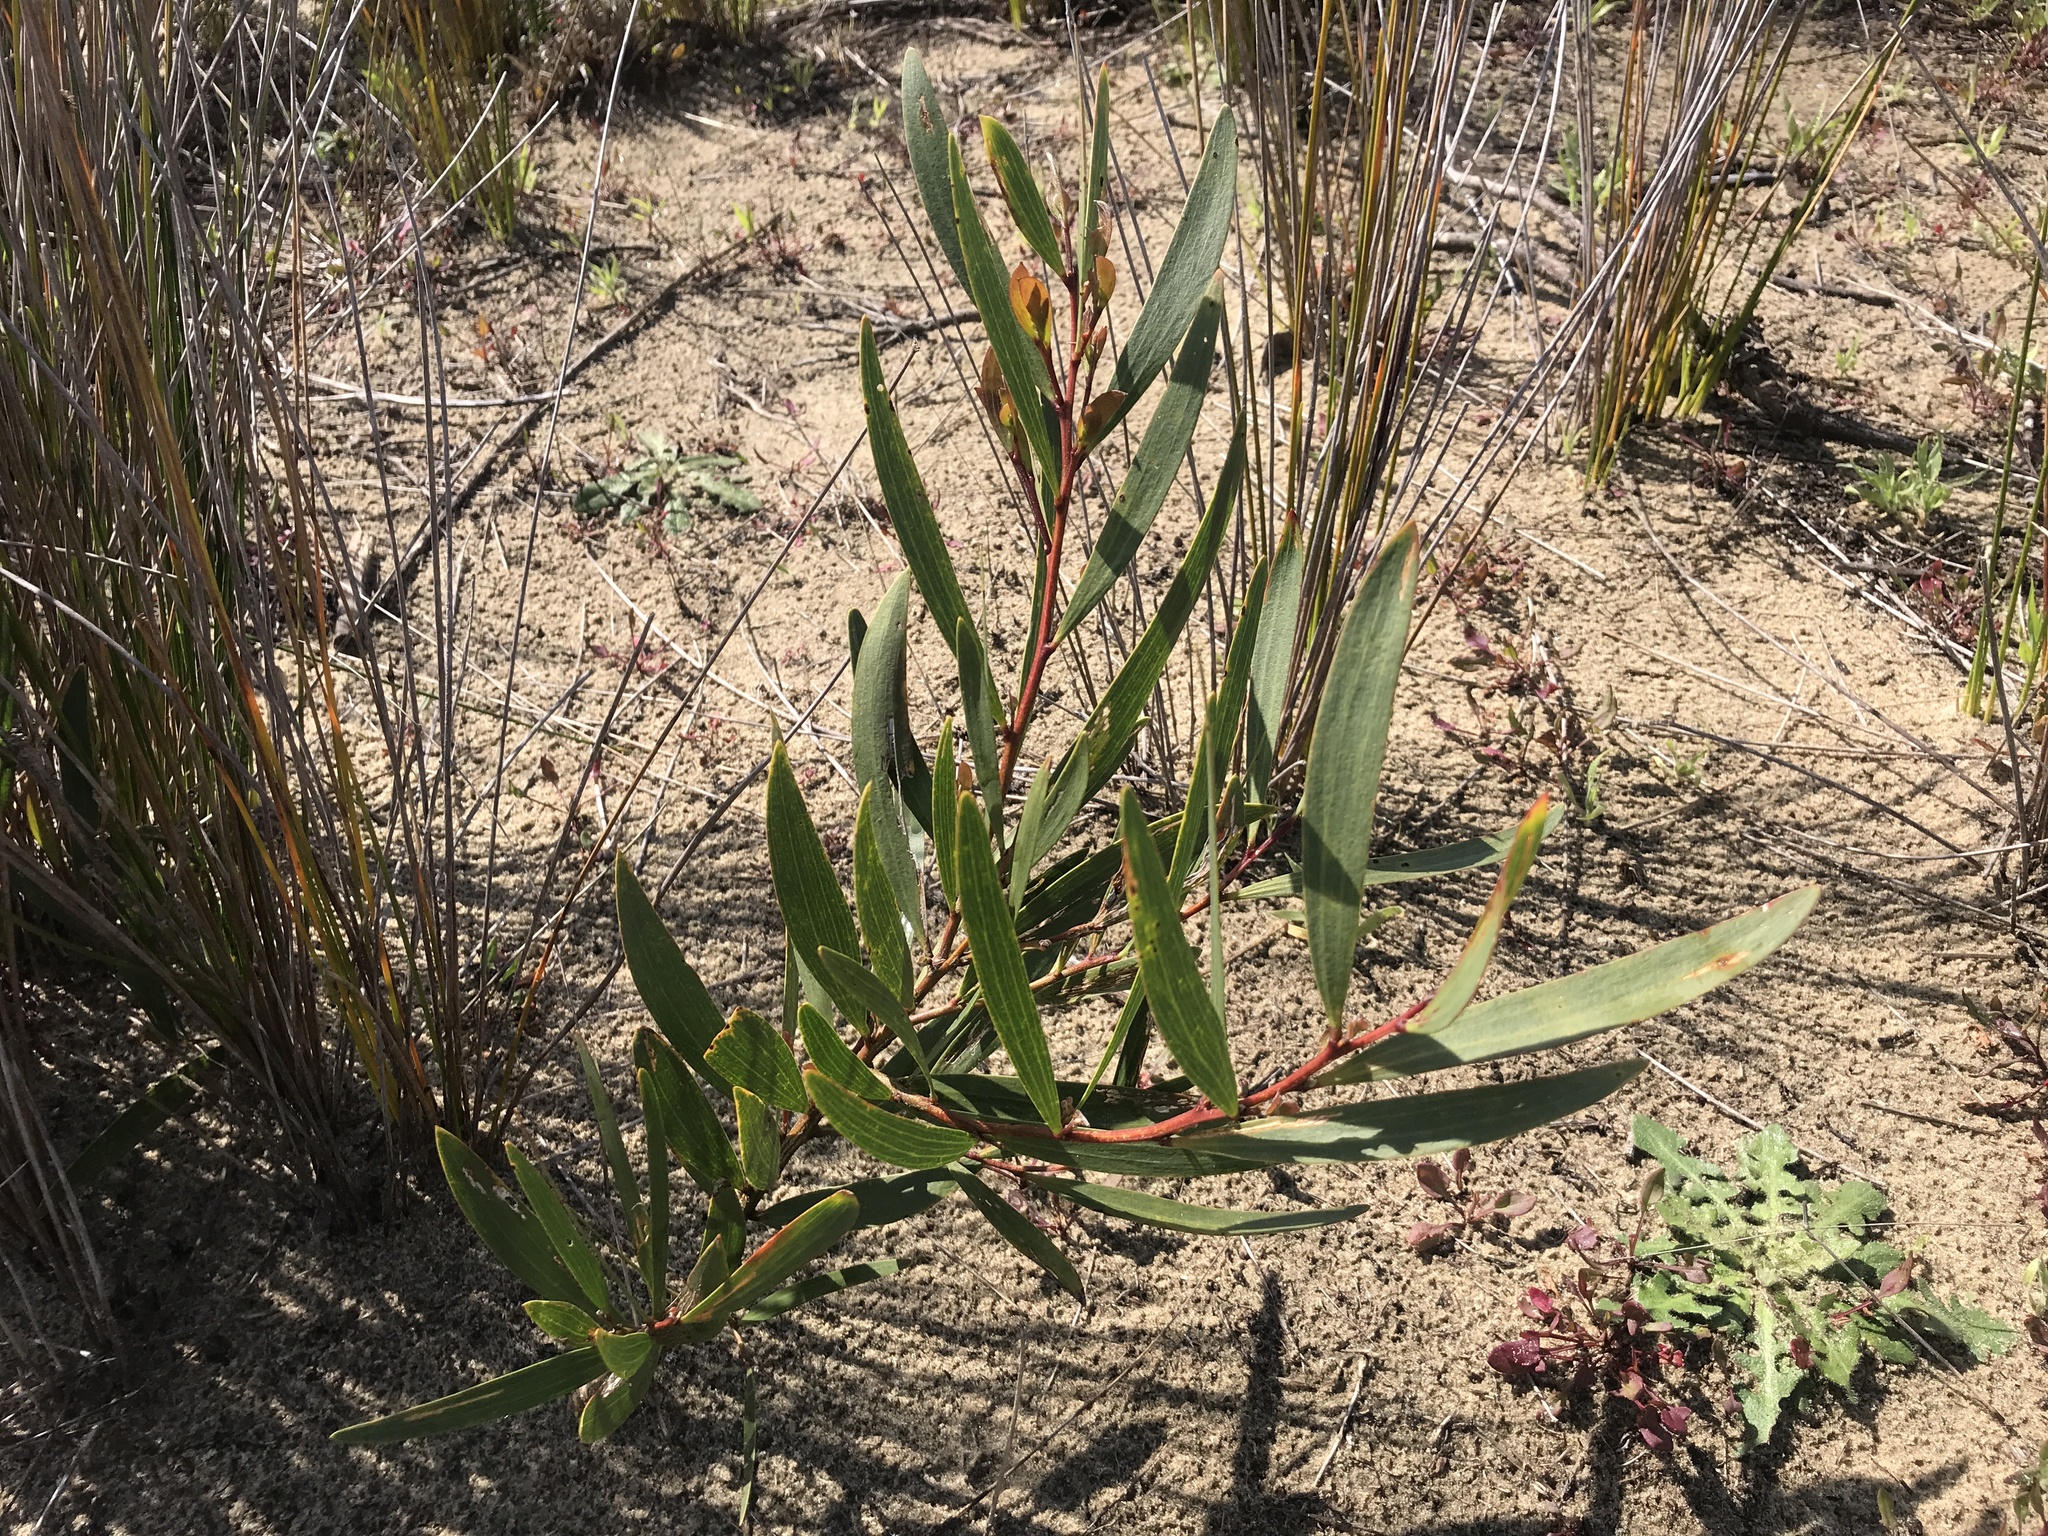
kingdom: Plantae
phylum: Tracheophyta
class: Magnoliopsida
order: Fabales
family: Fabaceae
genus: Acacia
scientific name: Acacia longifolia
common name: Sydney golden wattle
